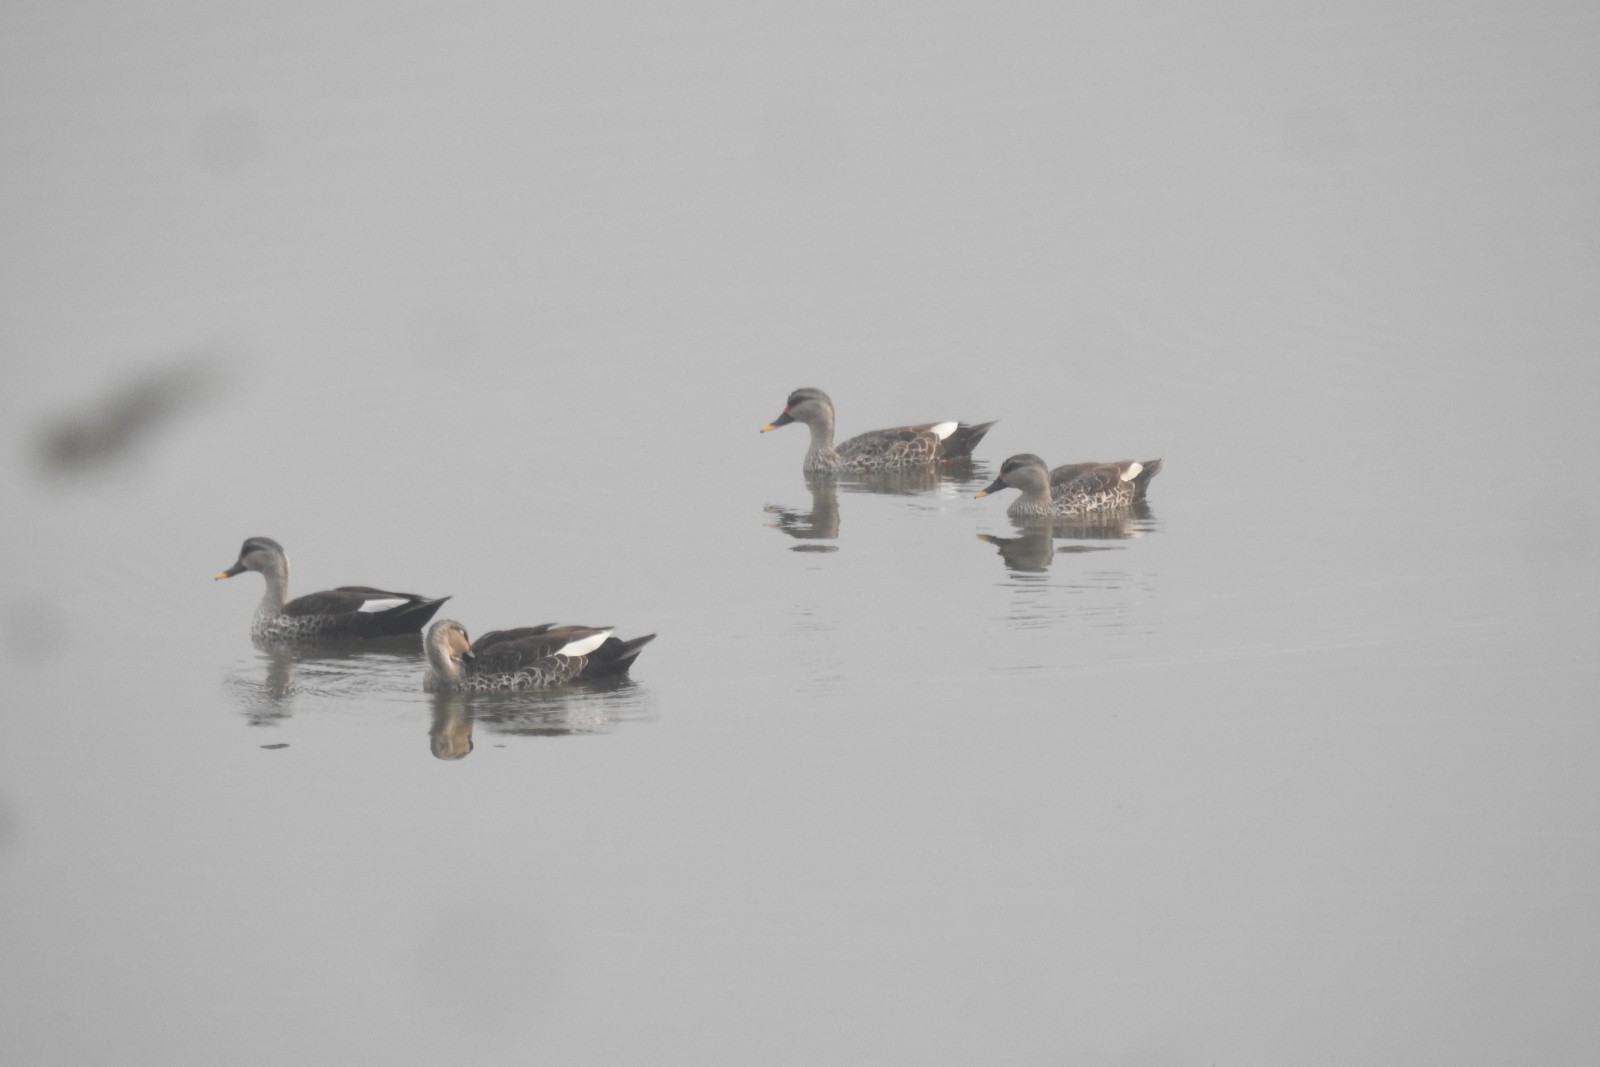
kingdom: Animalia
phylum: Chordata
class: Aves
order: Anseriformes
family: Anatidae
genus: Anas
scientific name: Anas poecilorhyncha
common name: Indian spot-billed duck
